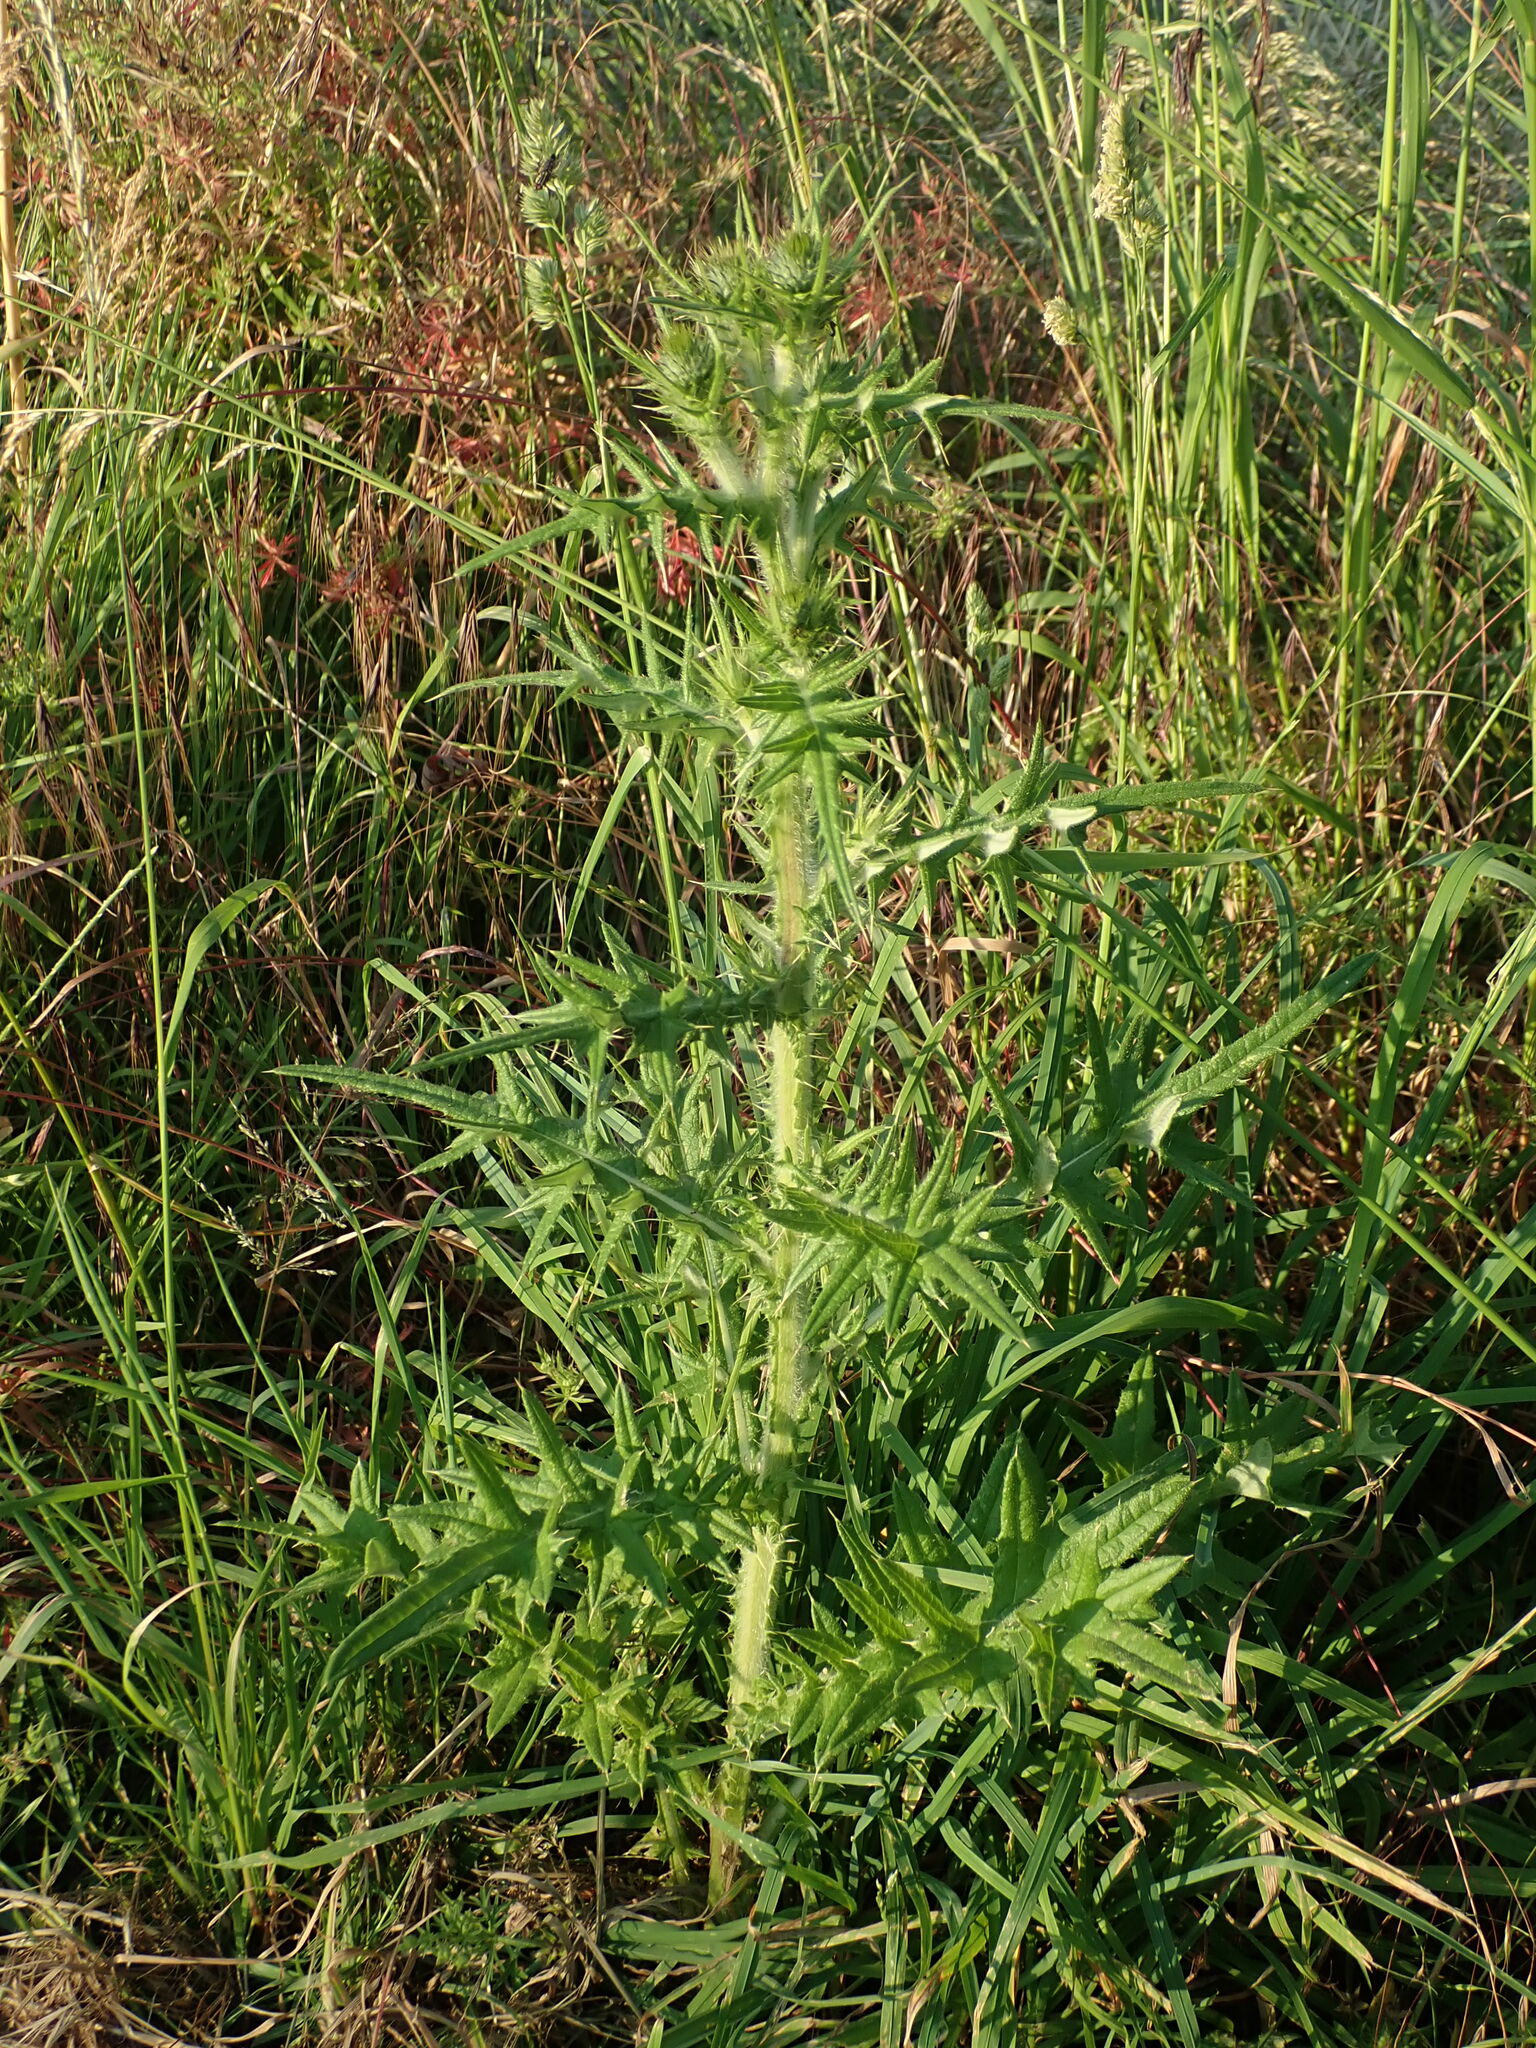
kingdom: Plantae
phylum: Tracheophyta
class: Magnoliopsida
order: Asterales
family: Asteraceae
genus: Cirsium
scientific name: Cirsium vulgare
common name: Bull thistle
